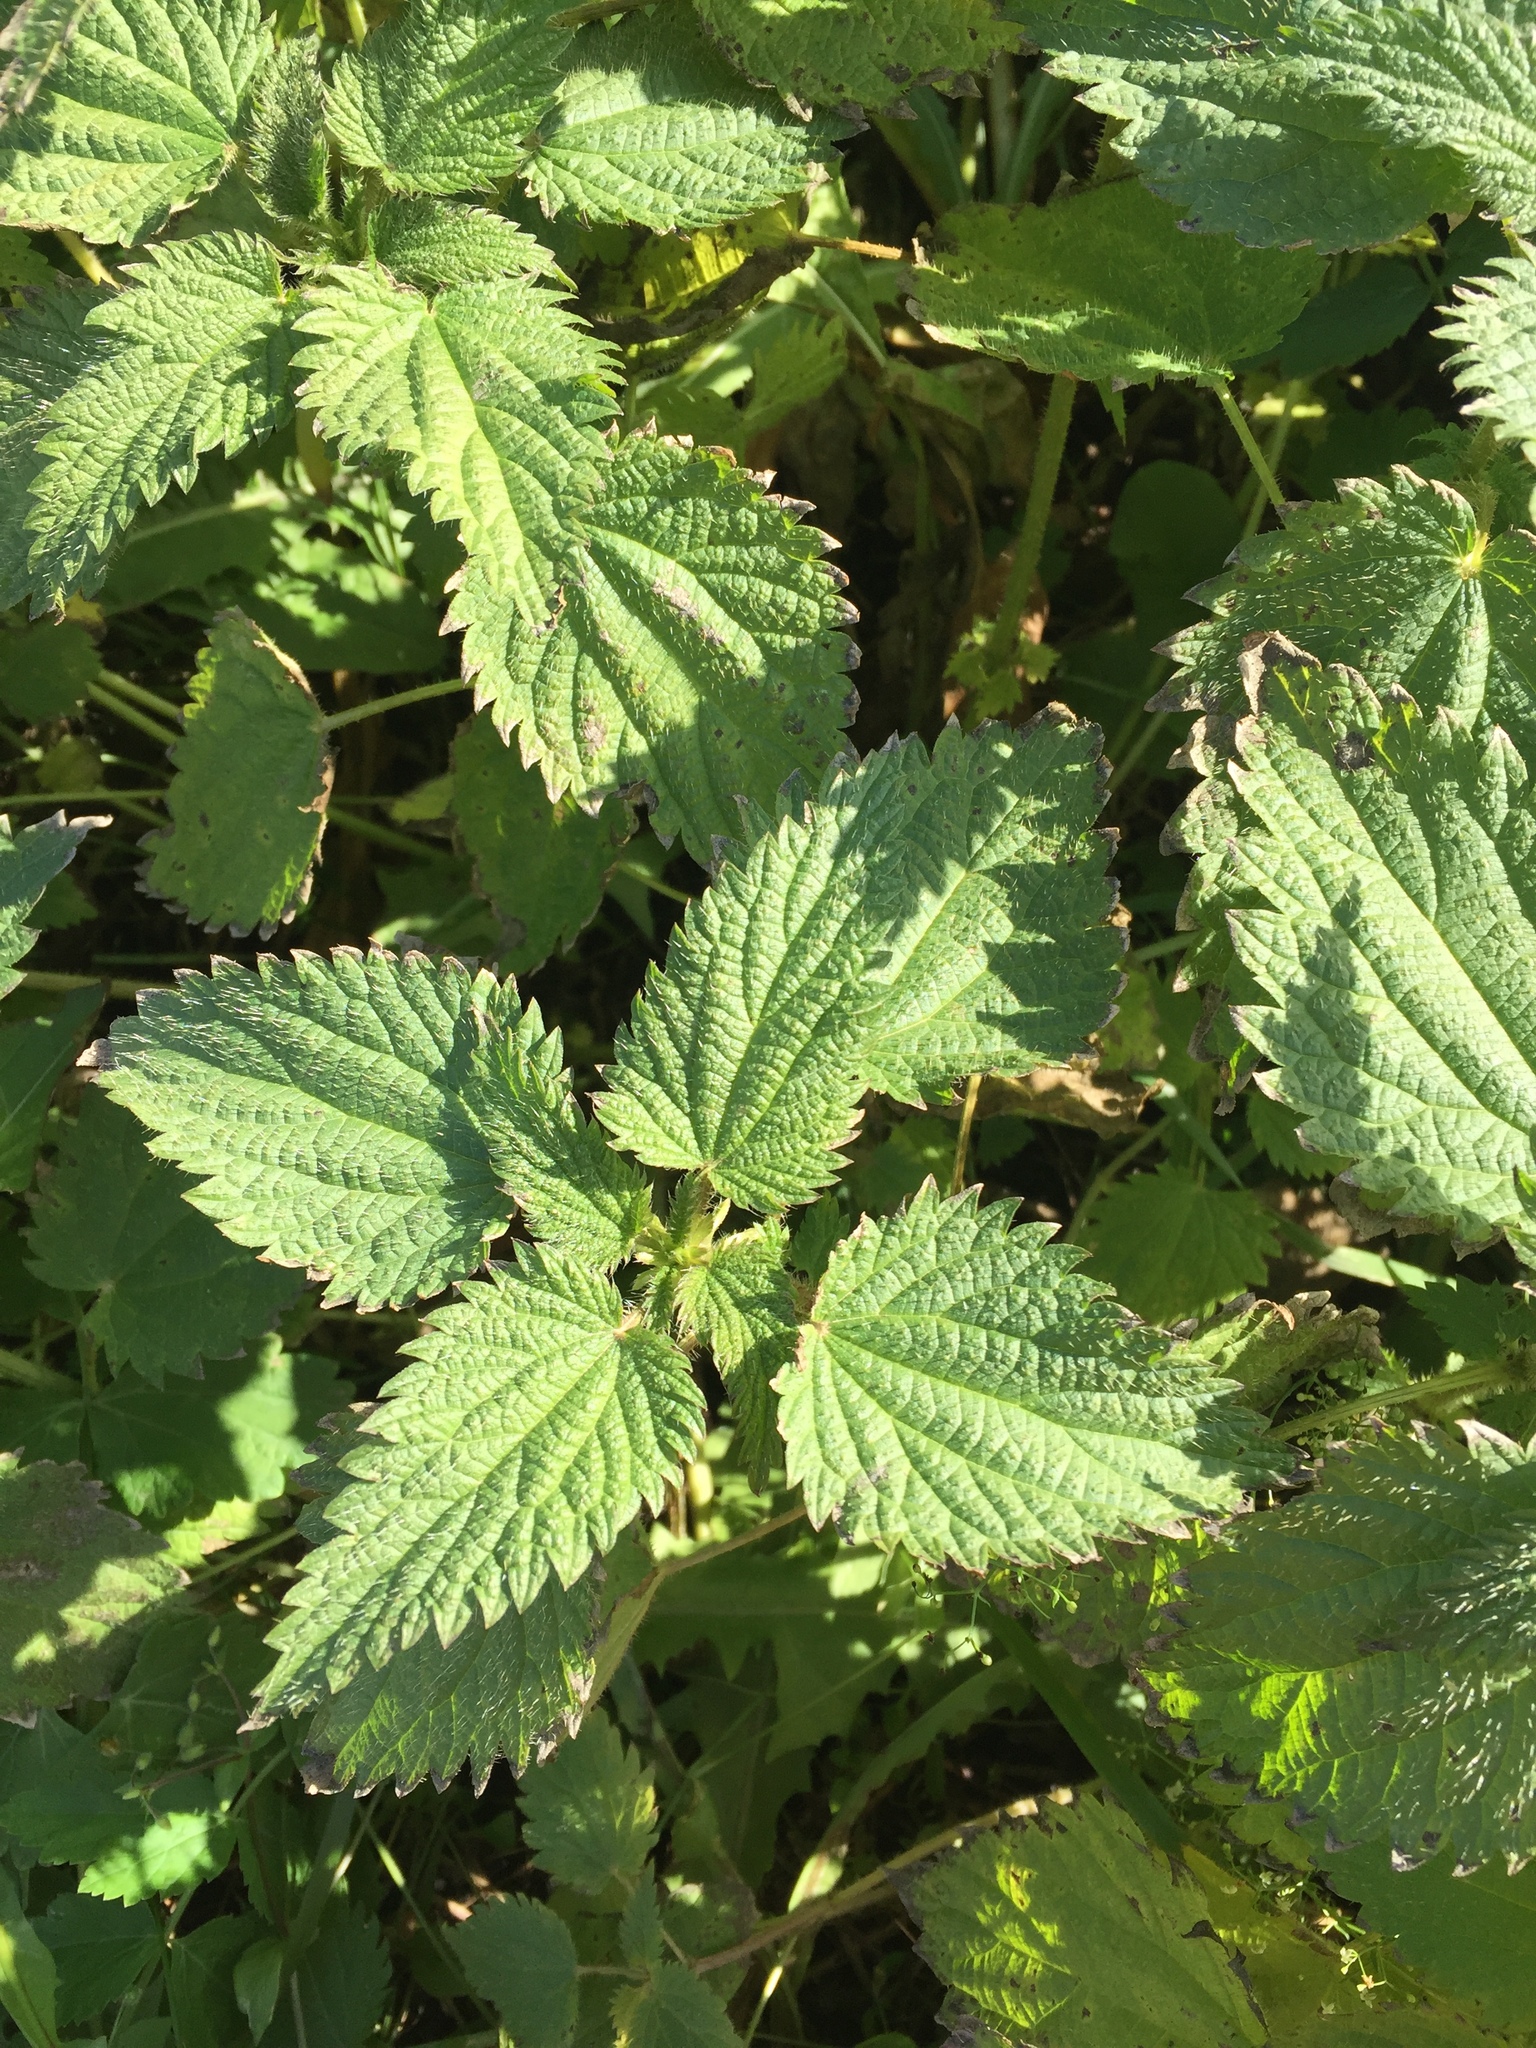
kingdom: Plantae
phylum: Tracheophyta
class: Magnoliopsida
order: Rosales
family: Urticaceae
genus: Urtica
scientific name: Urtica dioica
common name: Common nettle
